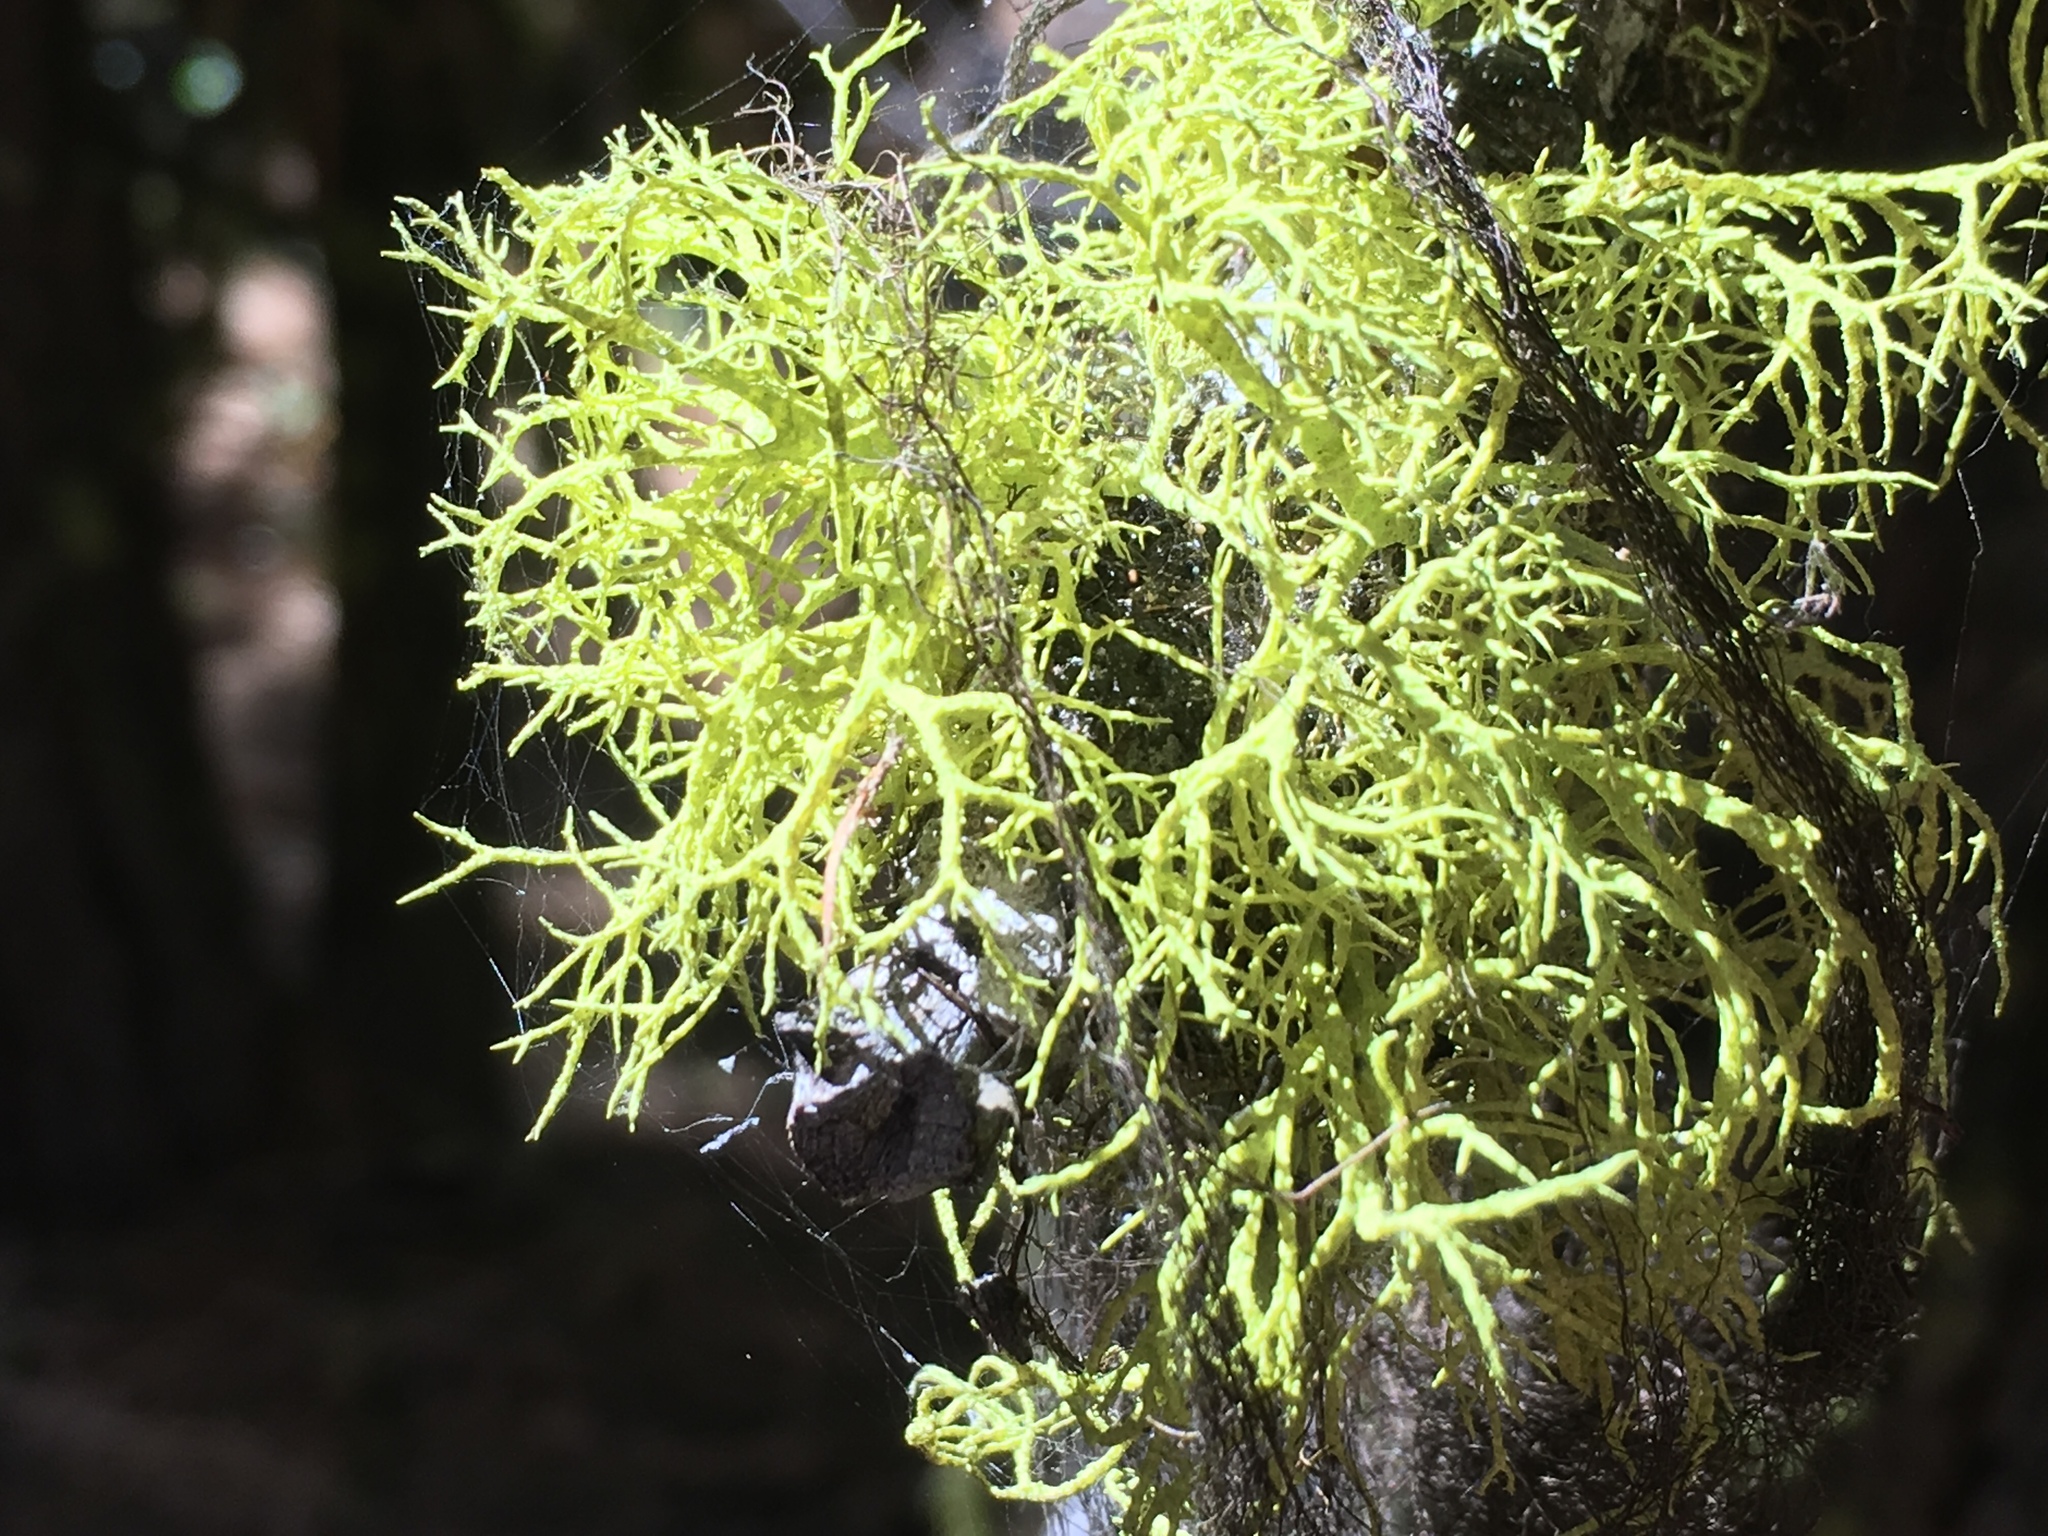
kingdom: Fungi
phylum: Ascomycota
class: Lecanoromycetes
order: Lecanorales
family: Parmeliaceae
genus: Letharia
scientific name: Letharia columbiana
